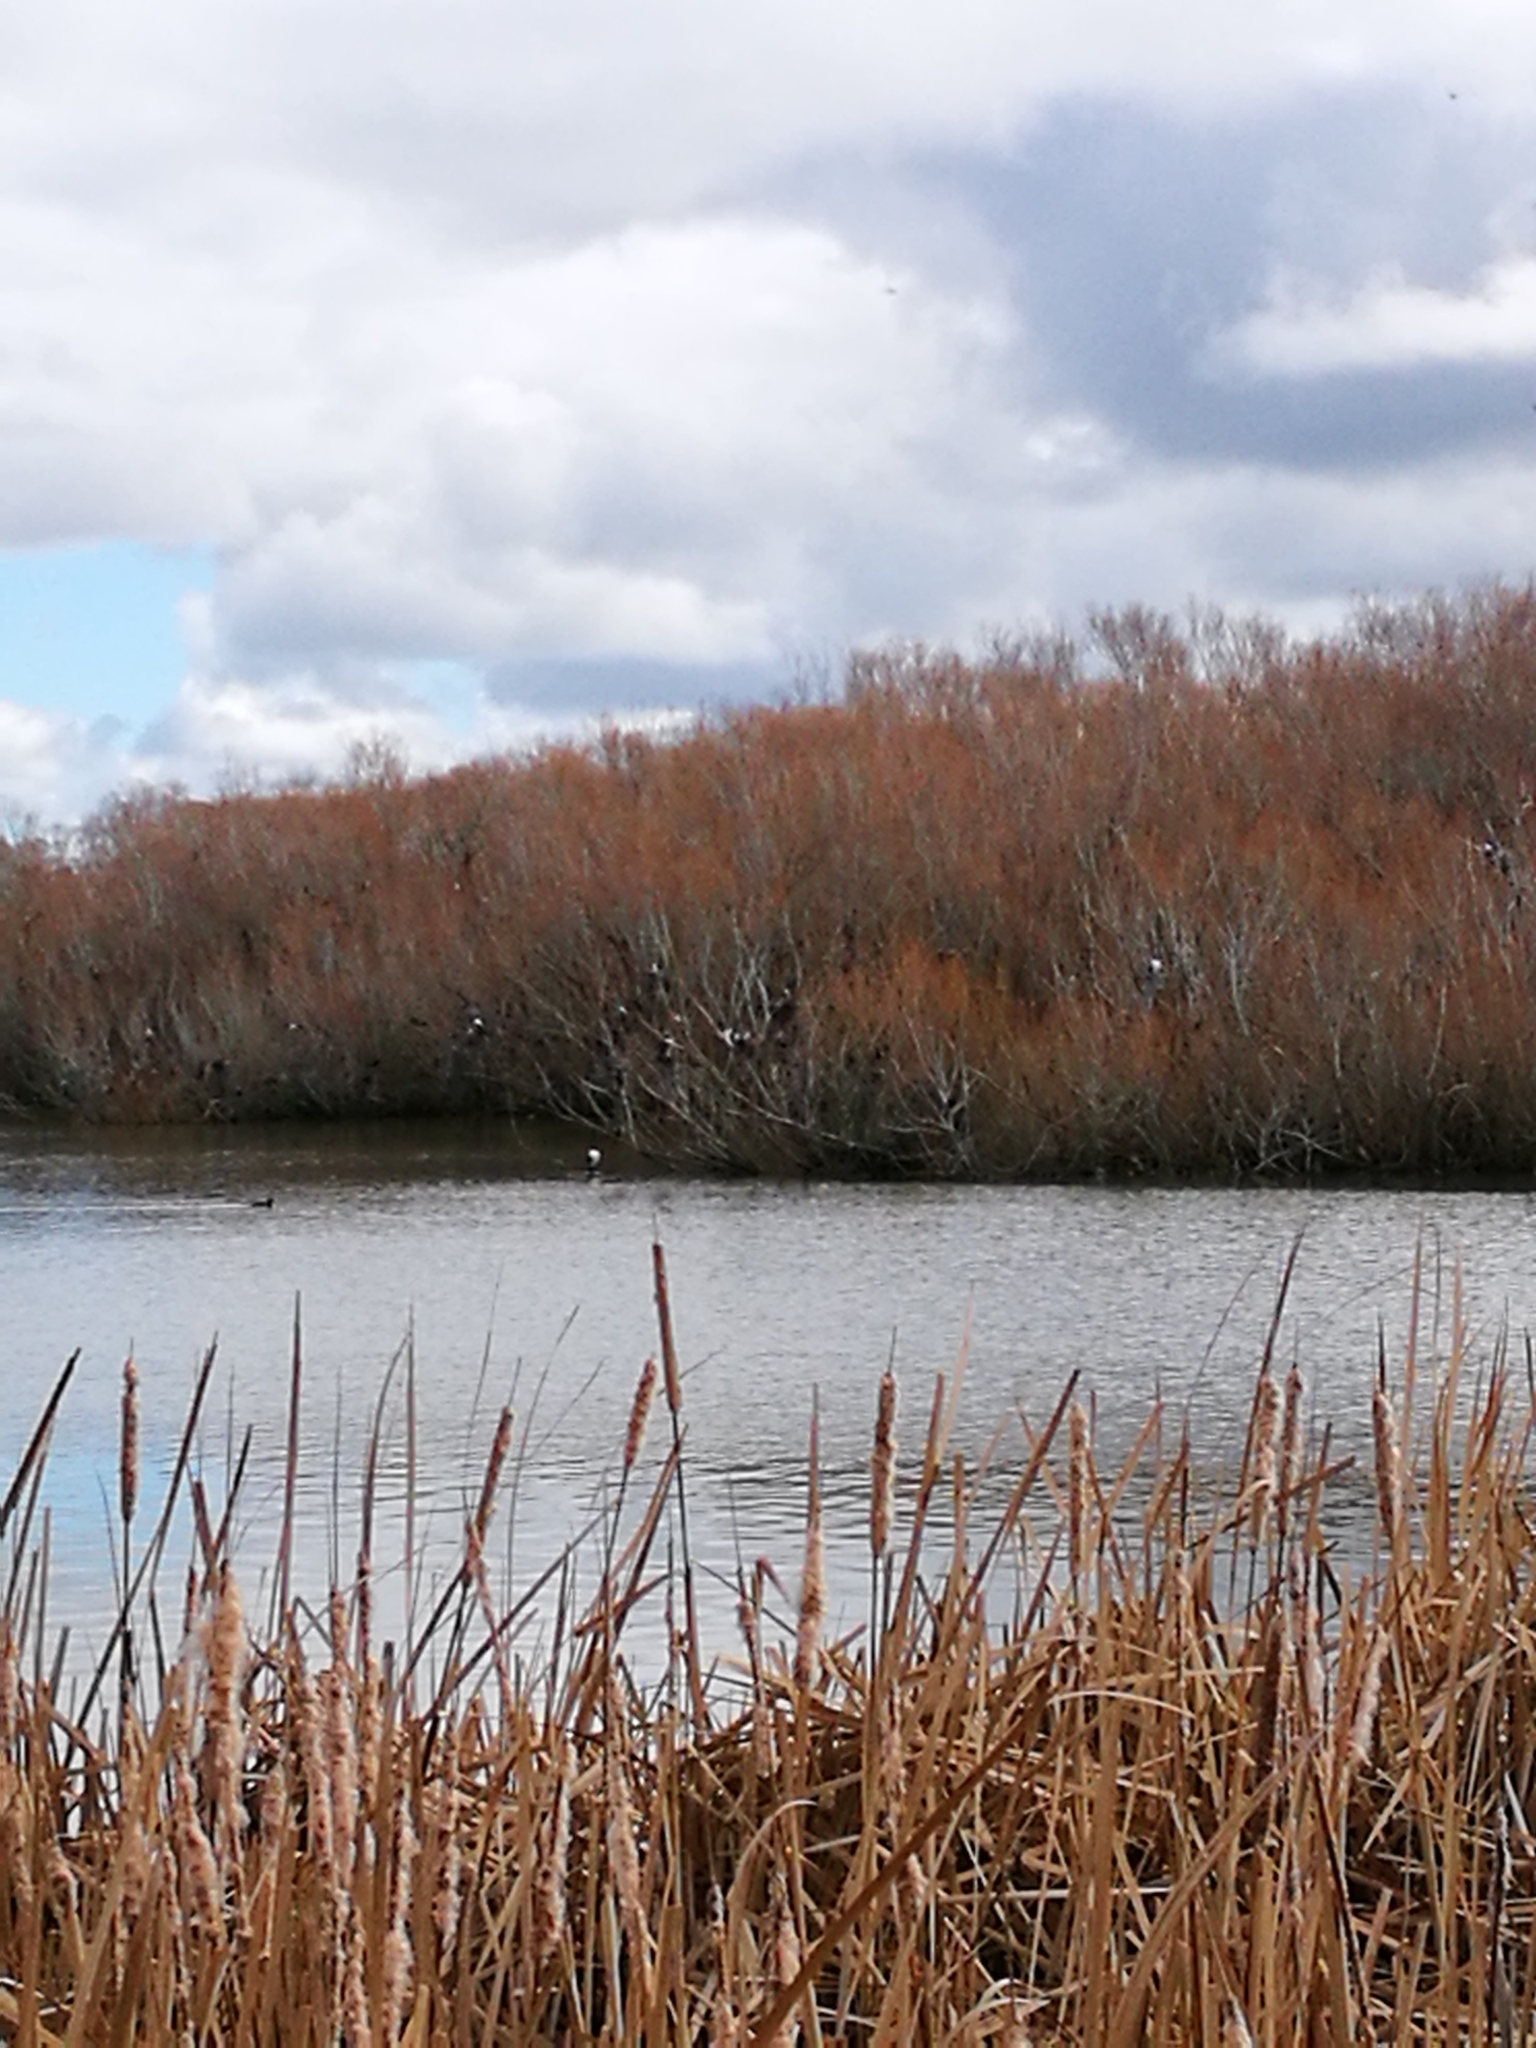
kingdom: Animalia
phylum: Chordata
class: Aves
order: Suliformes
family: Phalacrocoracidae
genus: Phalacrocorax
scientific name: Phalacrocorax varius
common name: Pied cormorant
